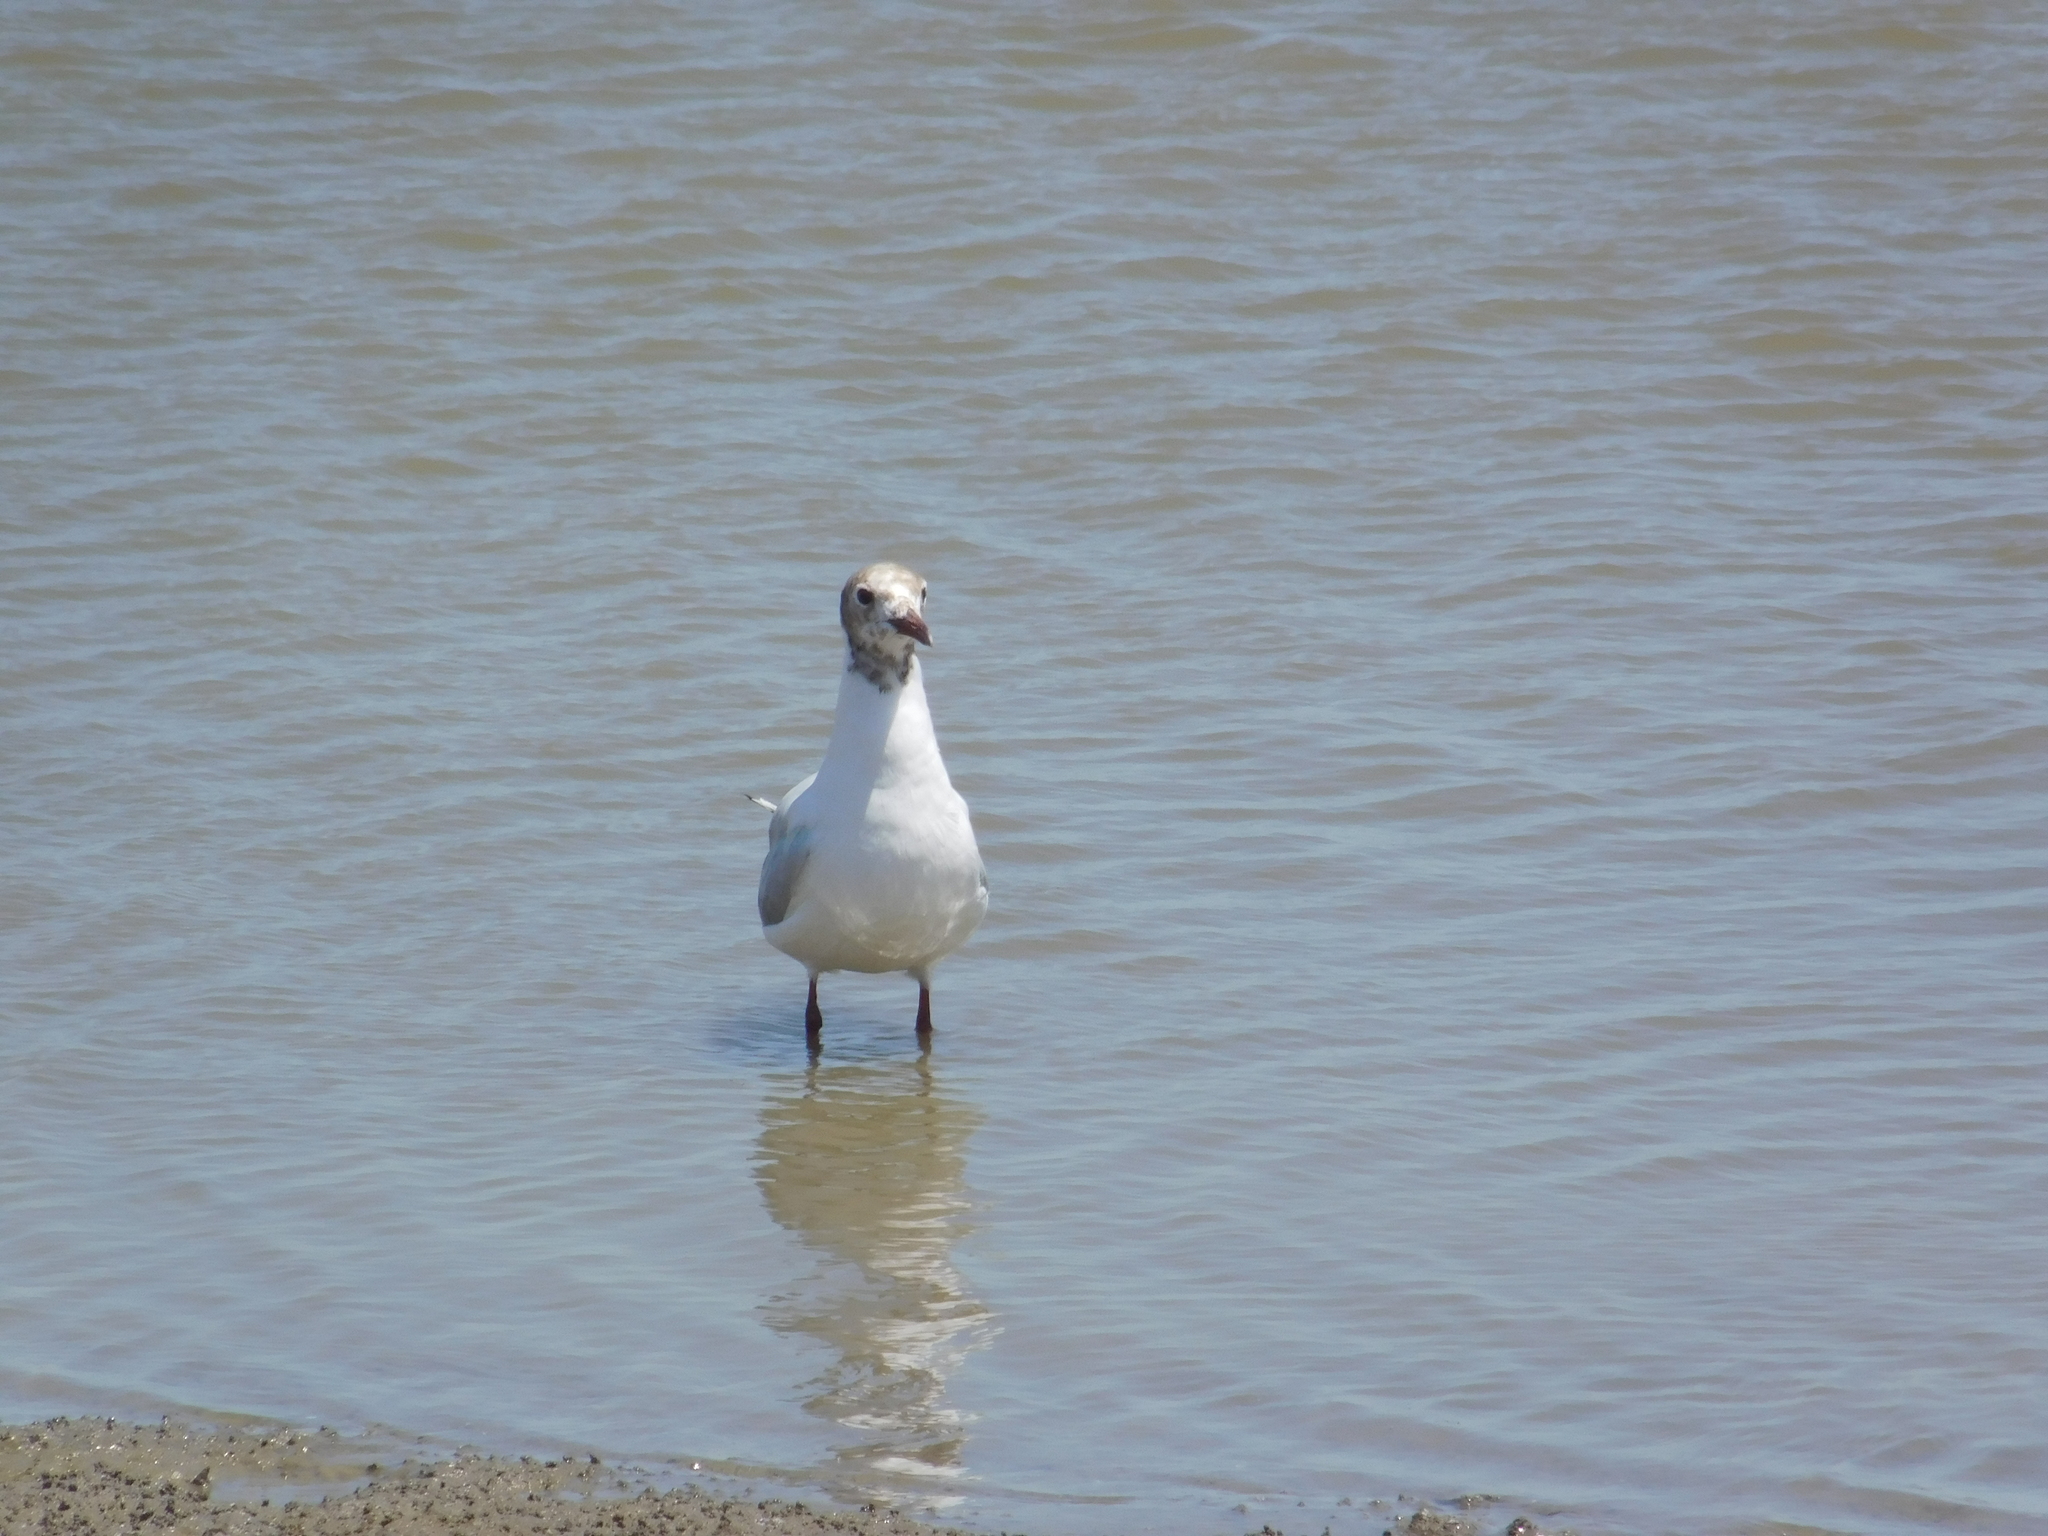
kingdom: Animalia
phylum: Chordata
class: Aves
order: Charadriiformes
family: Laridae
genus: Chroicocephalus
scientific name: Chroicocephalus maculipennis
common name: Brown-hooded gull
